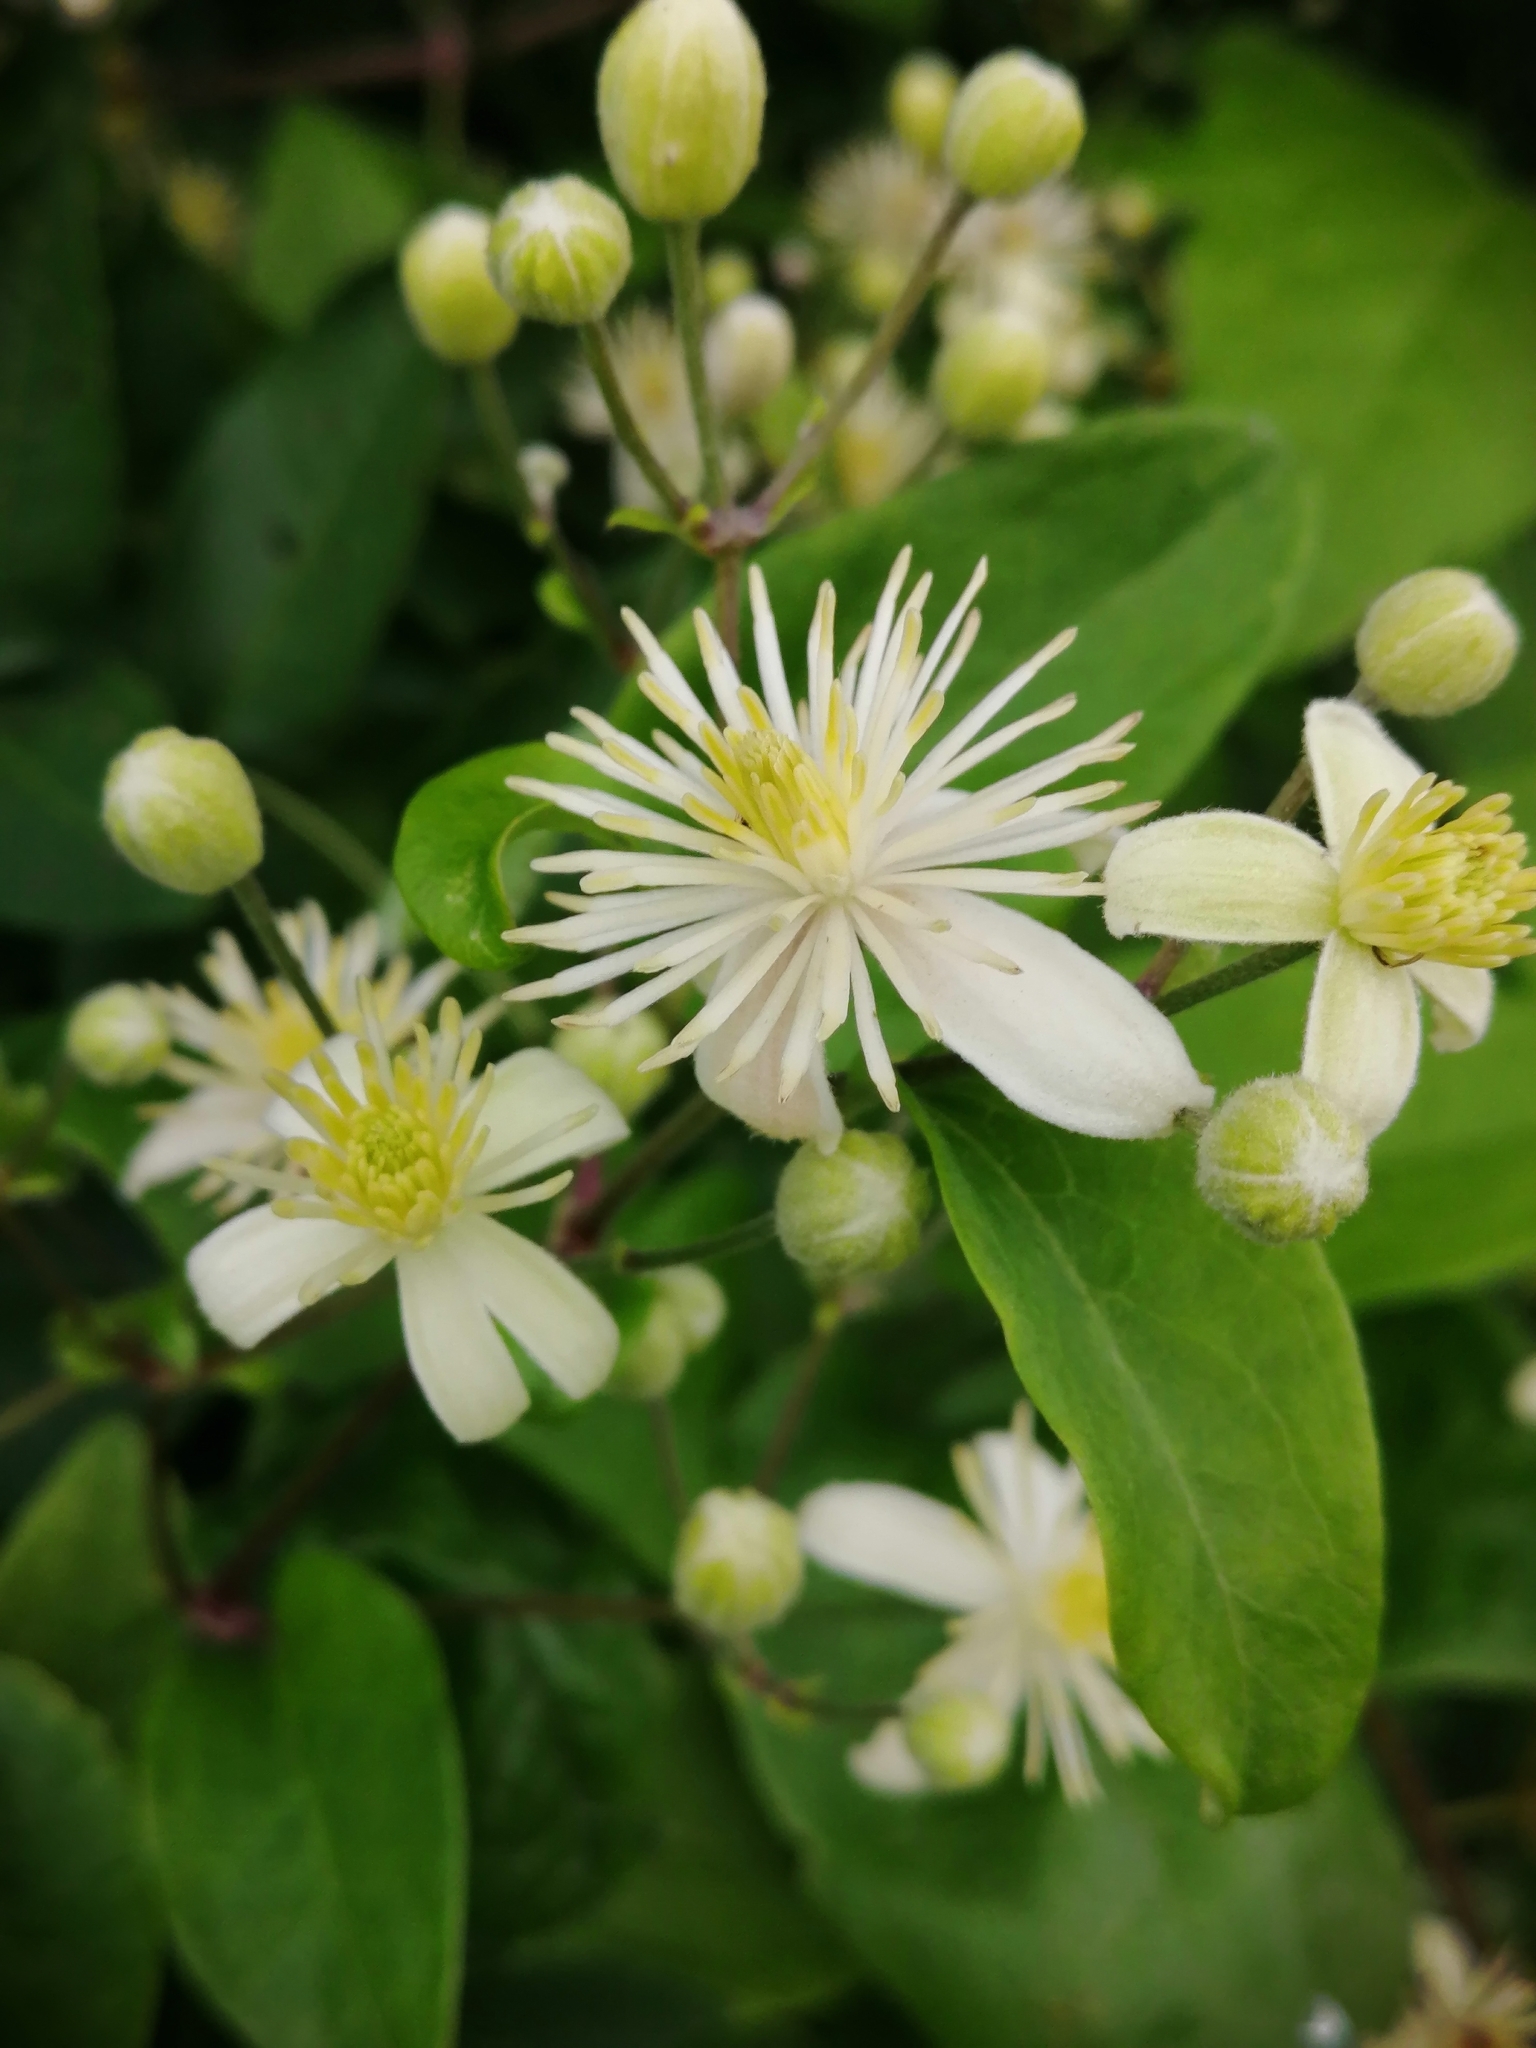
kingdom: Plantae
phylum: Tracheophyta
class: Magnoliopsida
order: Ranunculales
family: Ranunculaceae
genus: Clematis
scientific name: Clematis vitalba
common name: Evergreen clematis
